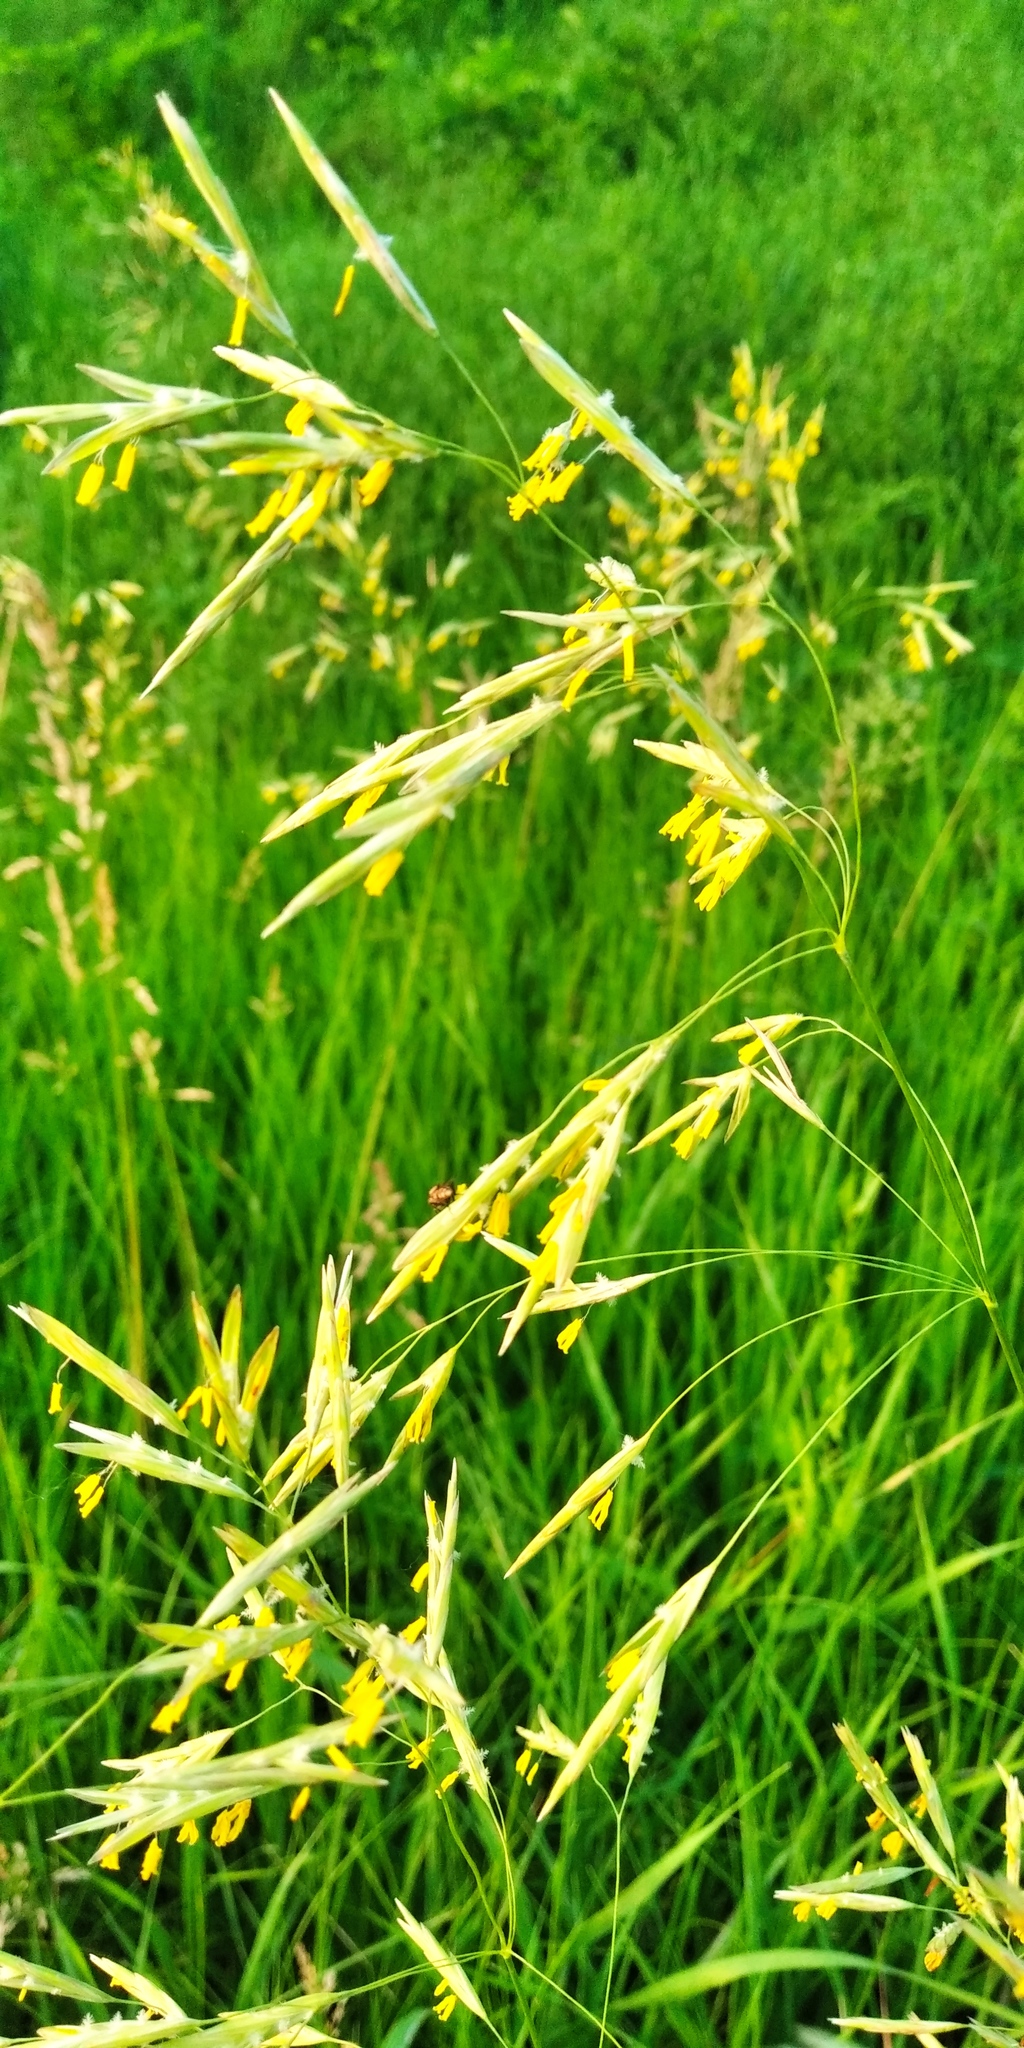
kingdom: Plantae
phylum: Tracheophyta
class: Liliopsida
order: Poales
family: Poaceae
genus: Bromus
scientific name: Bromus inermis
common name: Smooth brome
